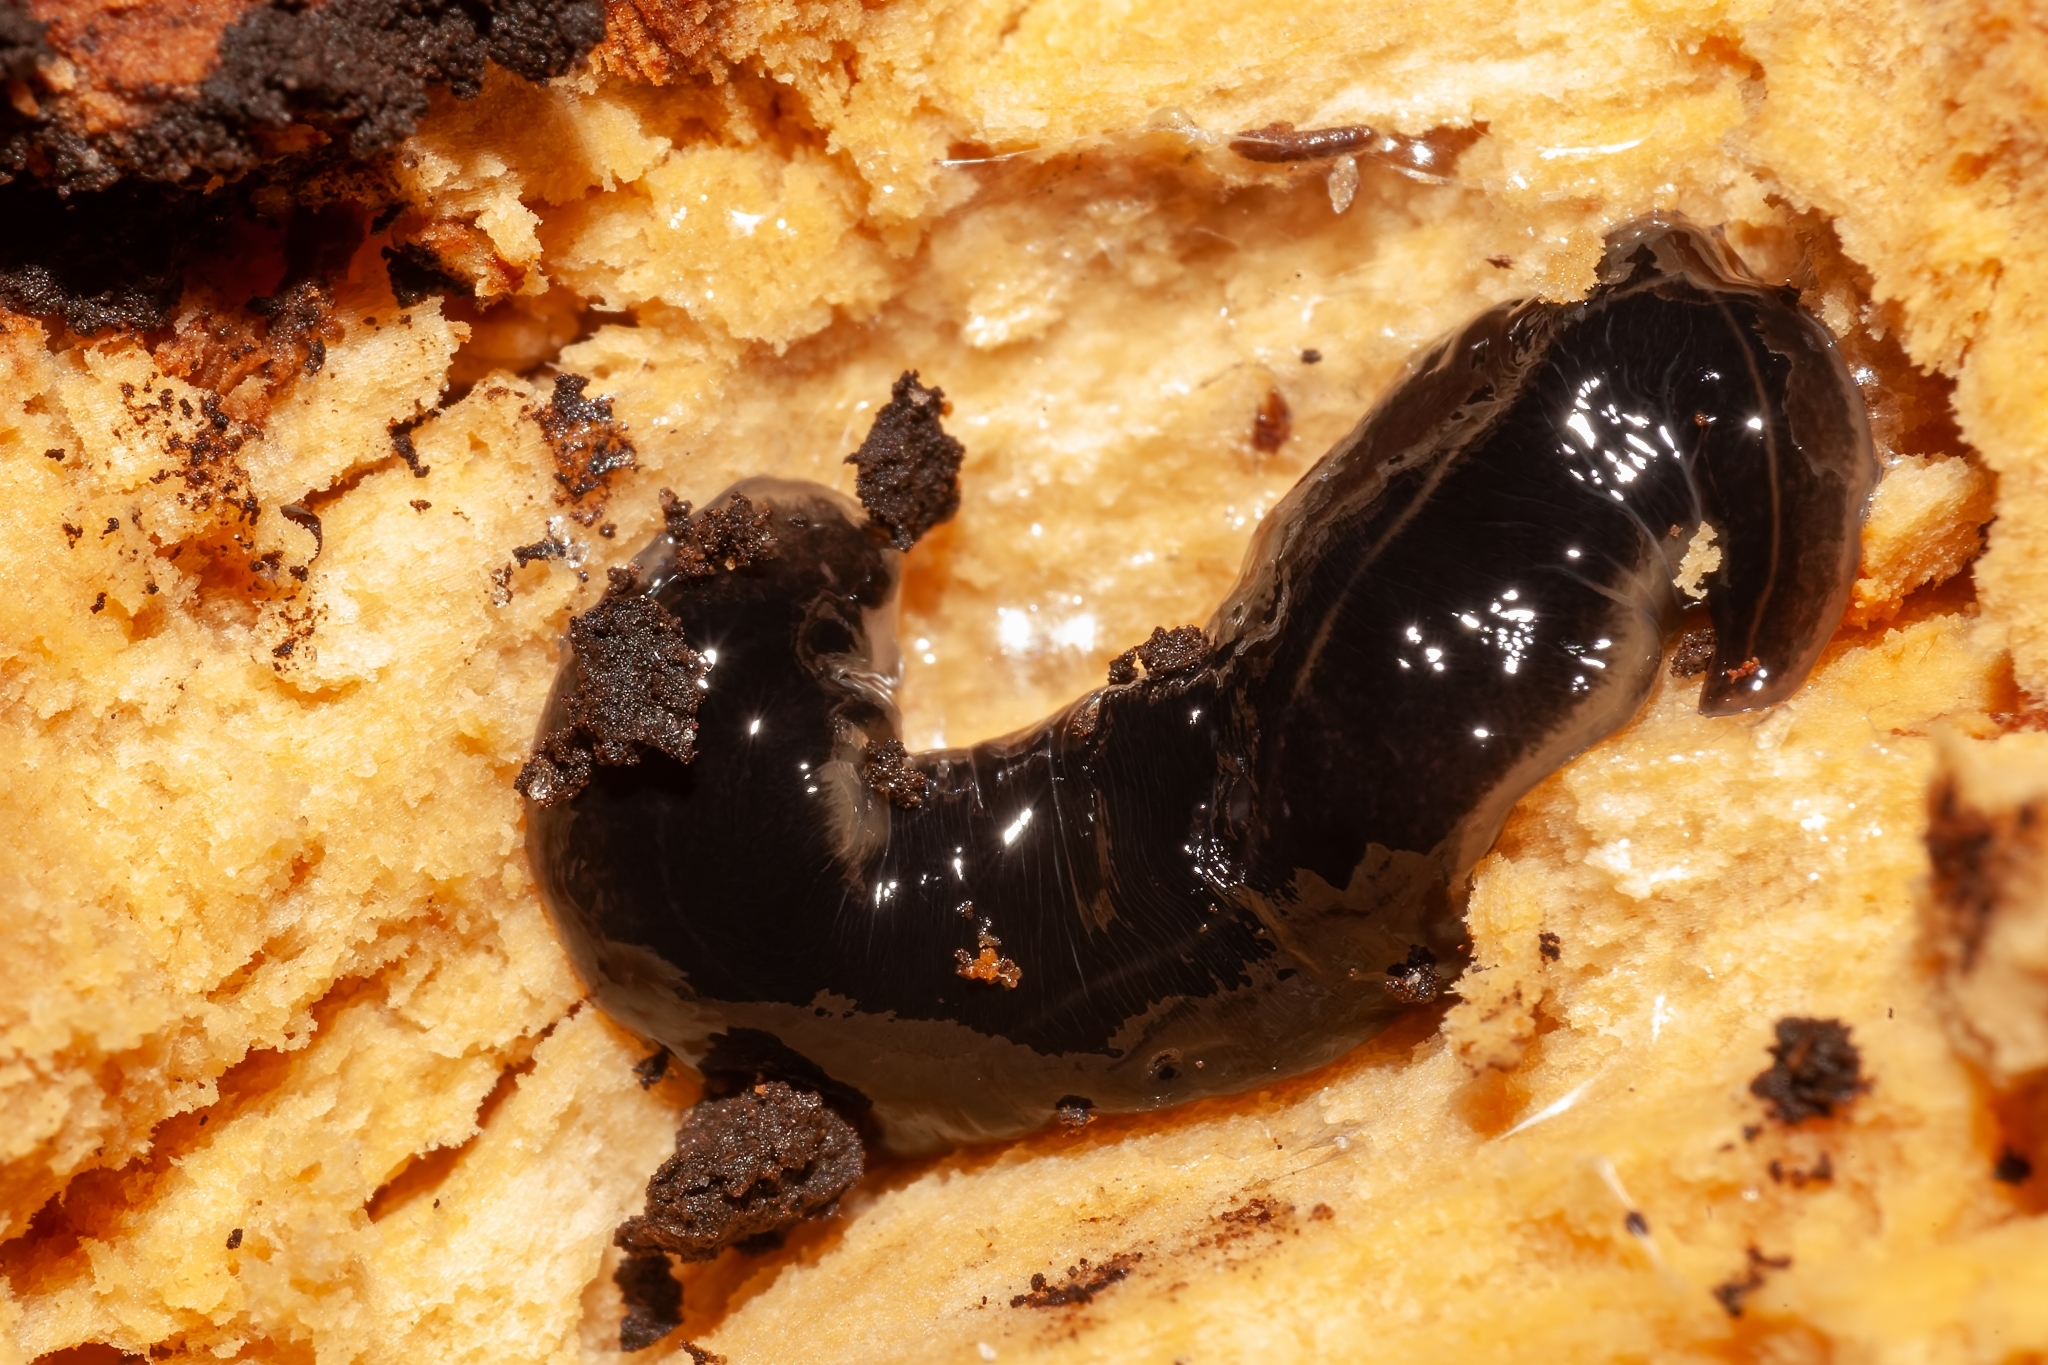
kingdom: Animalia
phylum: Platyhelminthes
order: Tricladida
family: Geoplanidae
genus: Platydemus
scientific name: Platydemus manokwari
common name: New guinea flatworm
